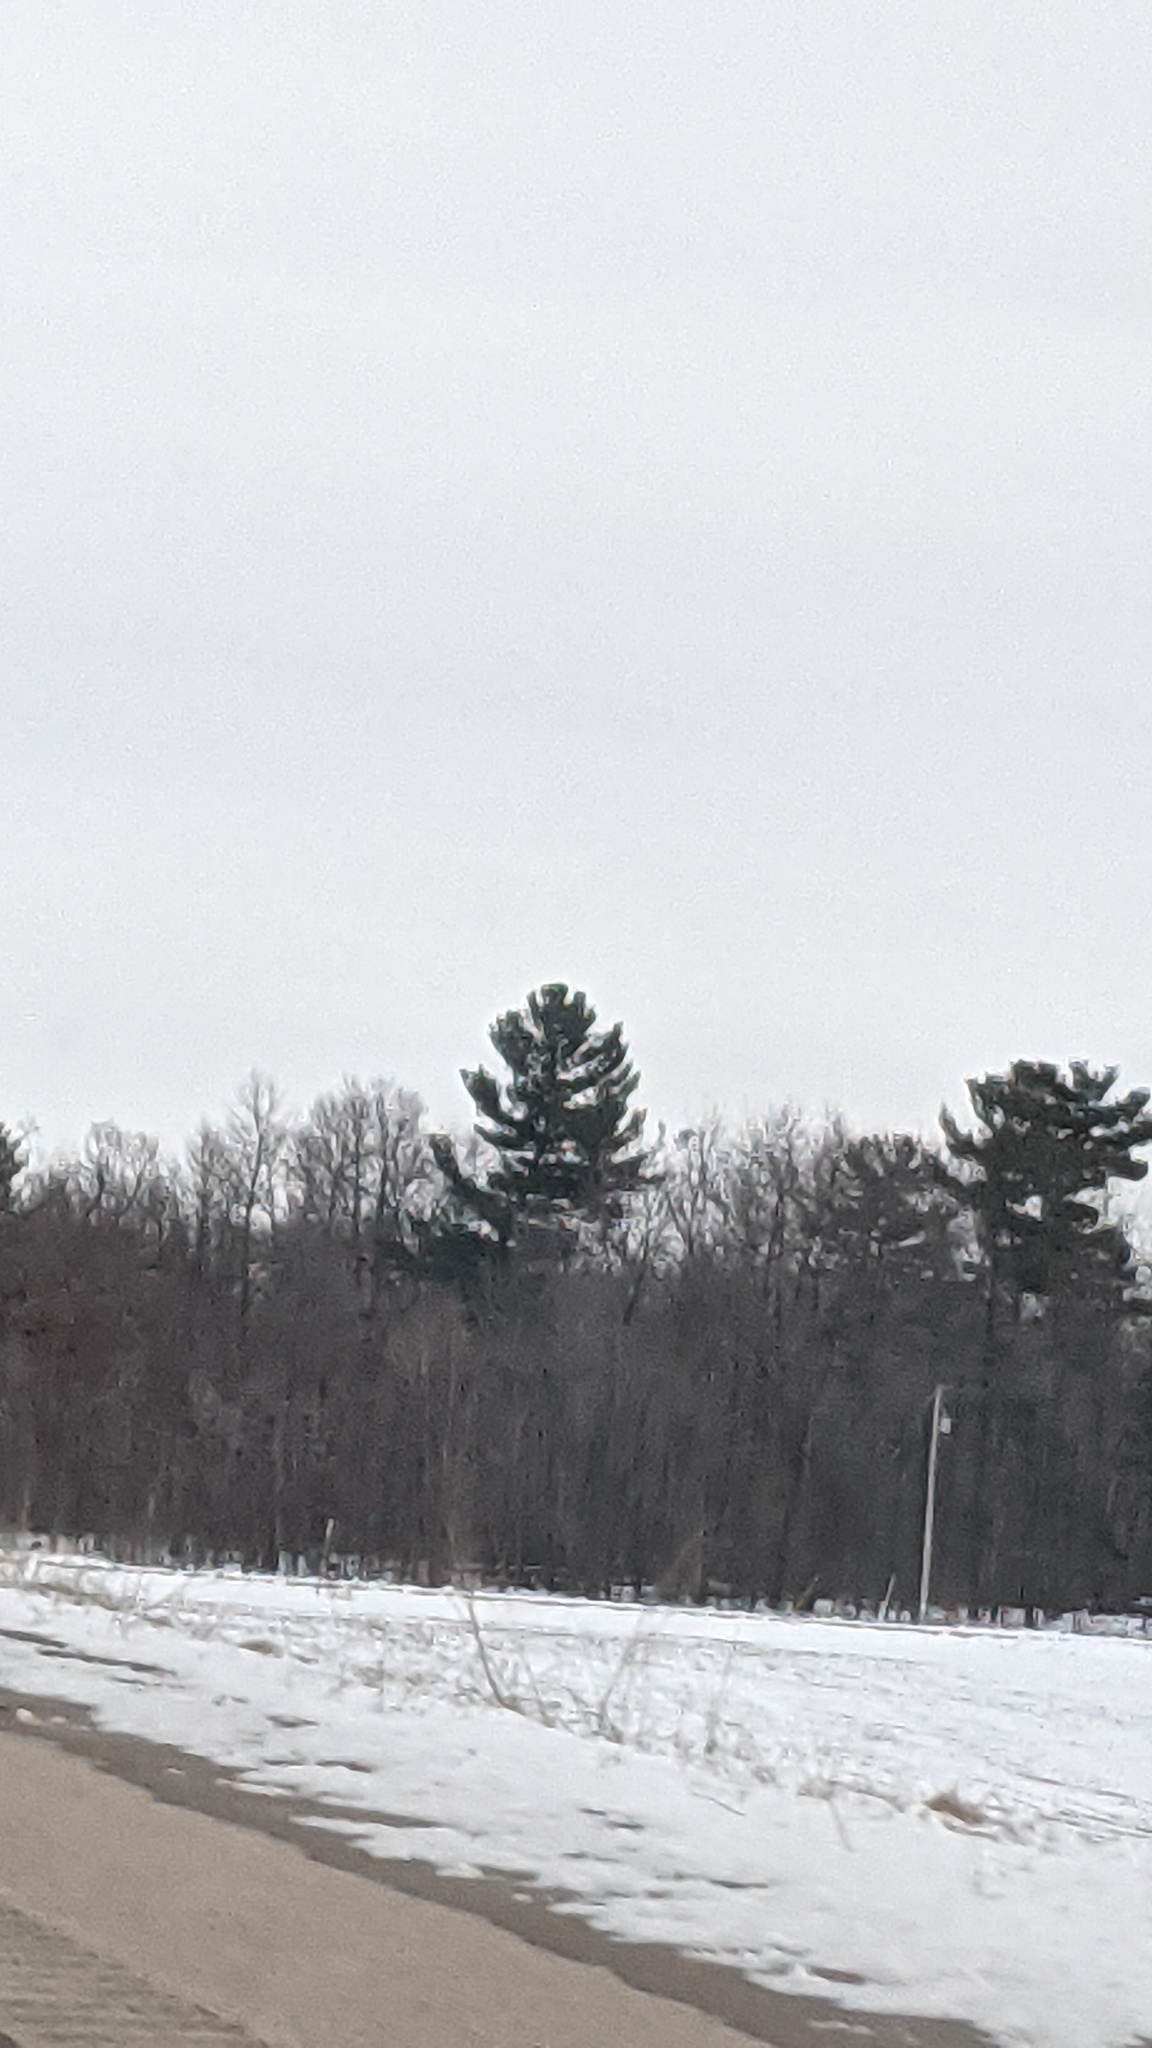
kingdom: Plantae
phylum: Tracheophyta
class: Pinopsida
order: Pinales
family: Pinaceae
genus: Pinus
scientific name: Pinus strobus
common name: Weymouth pine
